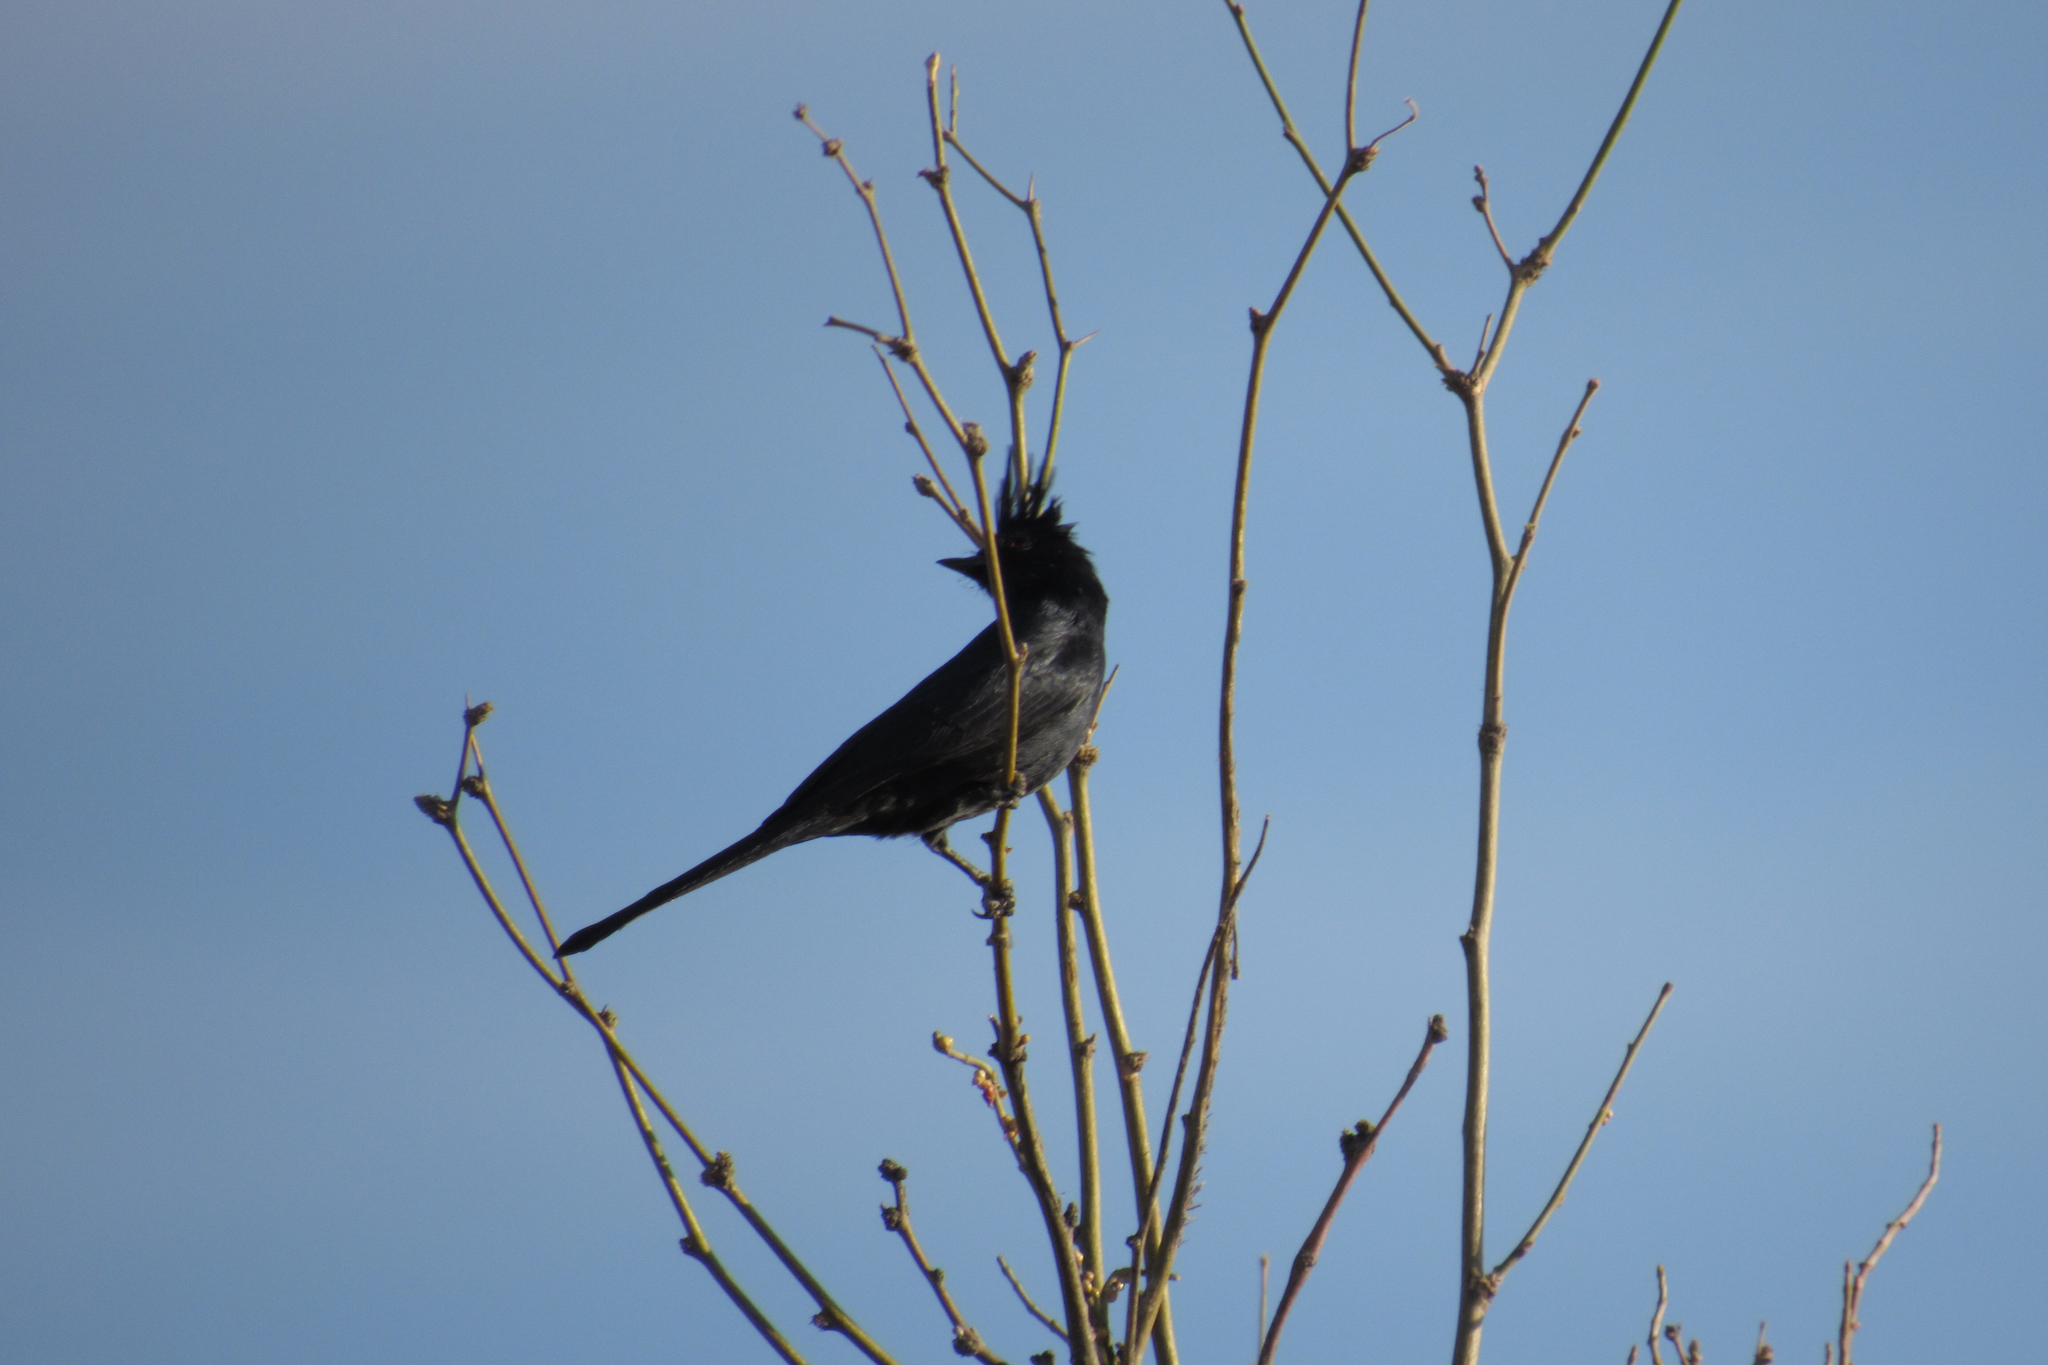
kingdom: Animalia
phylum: Chordata
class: Aves
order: Passeriformes
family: Ptilogonatidae
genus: Phainopepla
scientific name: Phainopepla nitens
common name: Phainopepla
